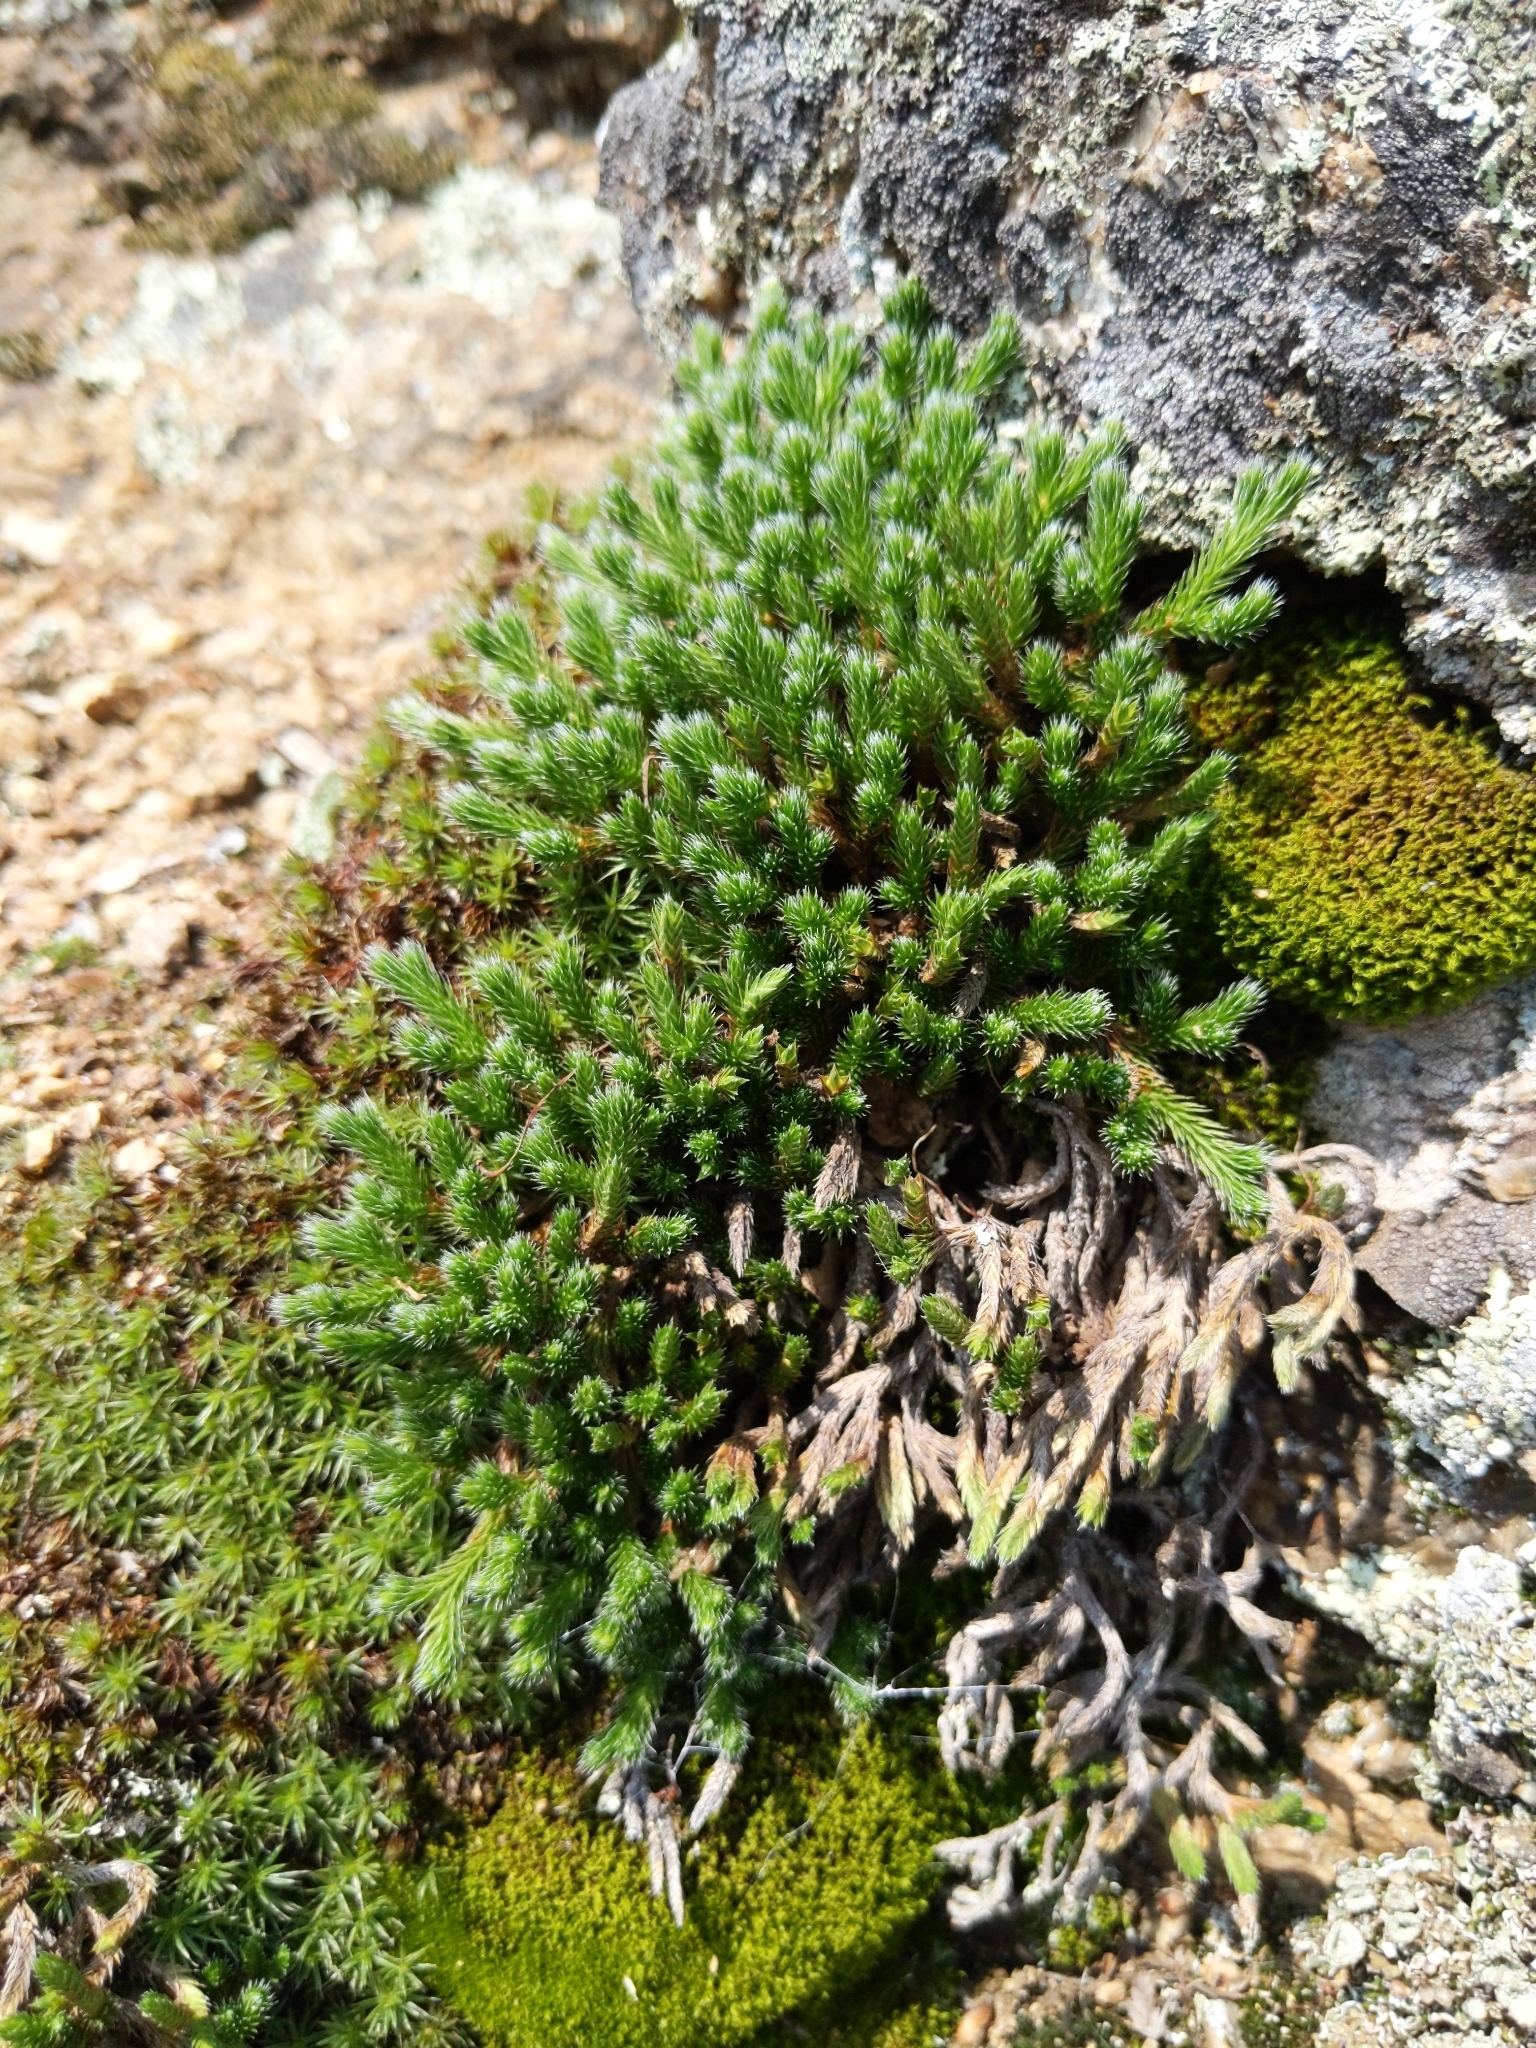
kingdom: Plantae
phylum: Tracheophyta
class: Lycopodiopsida
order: Selaginellales
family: Selaginellaceae
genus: Selaginella
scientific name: Selaginella rupestris
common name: Dwarf spikemoss
